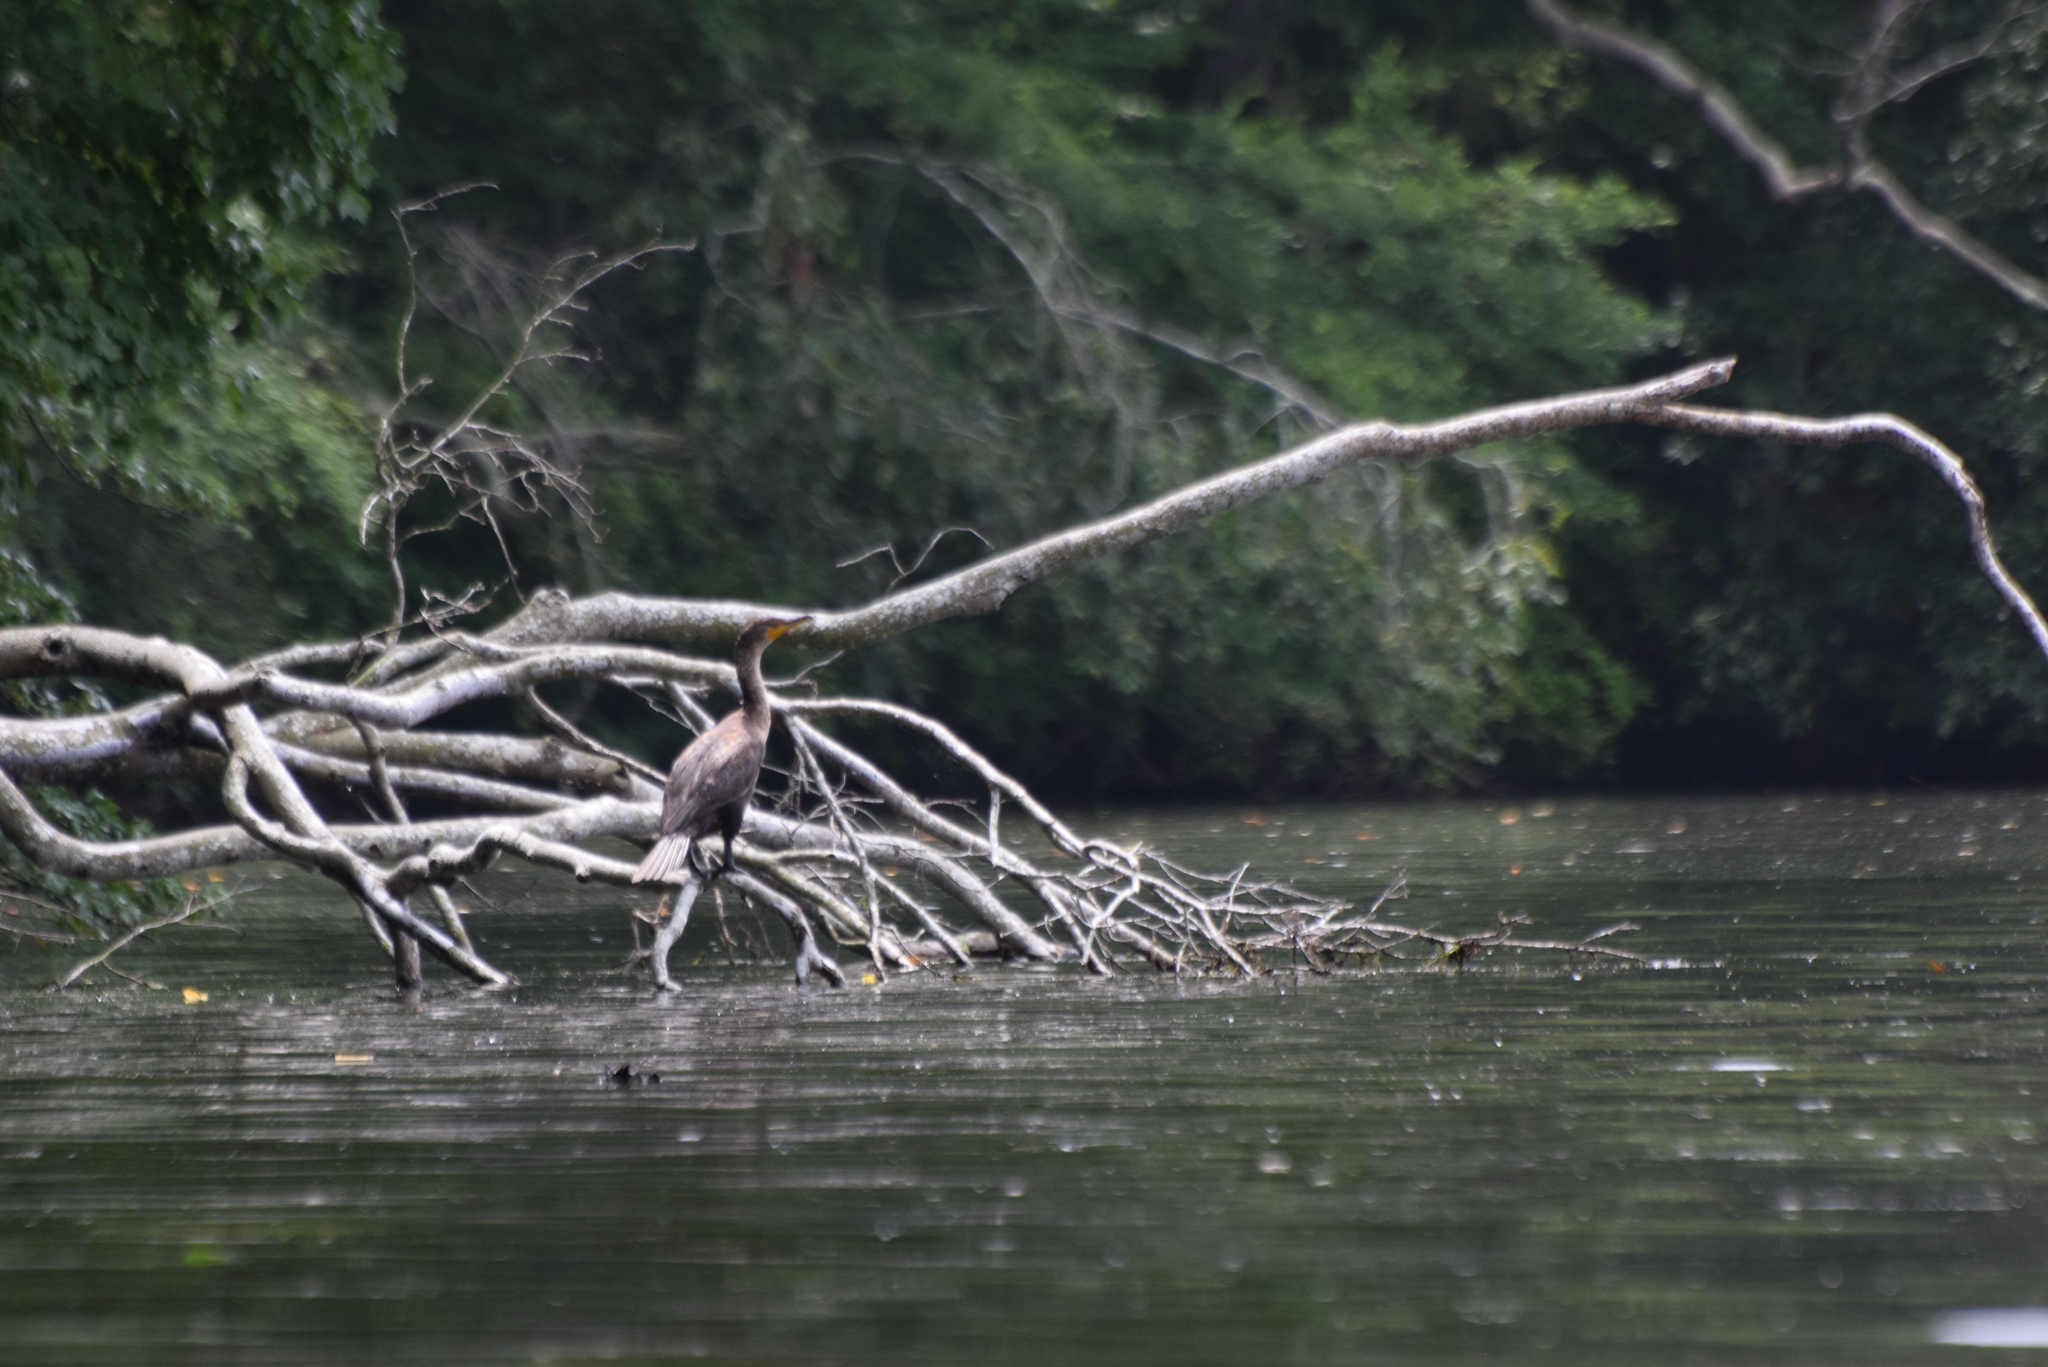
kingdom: Animalia
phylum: Chordata
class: Aves
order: Suliformes
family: Phalacrocoracidae
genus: Phalacrocorax
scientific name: Phalacrocorax auritus
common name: Double-crested cormorant
